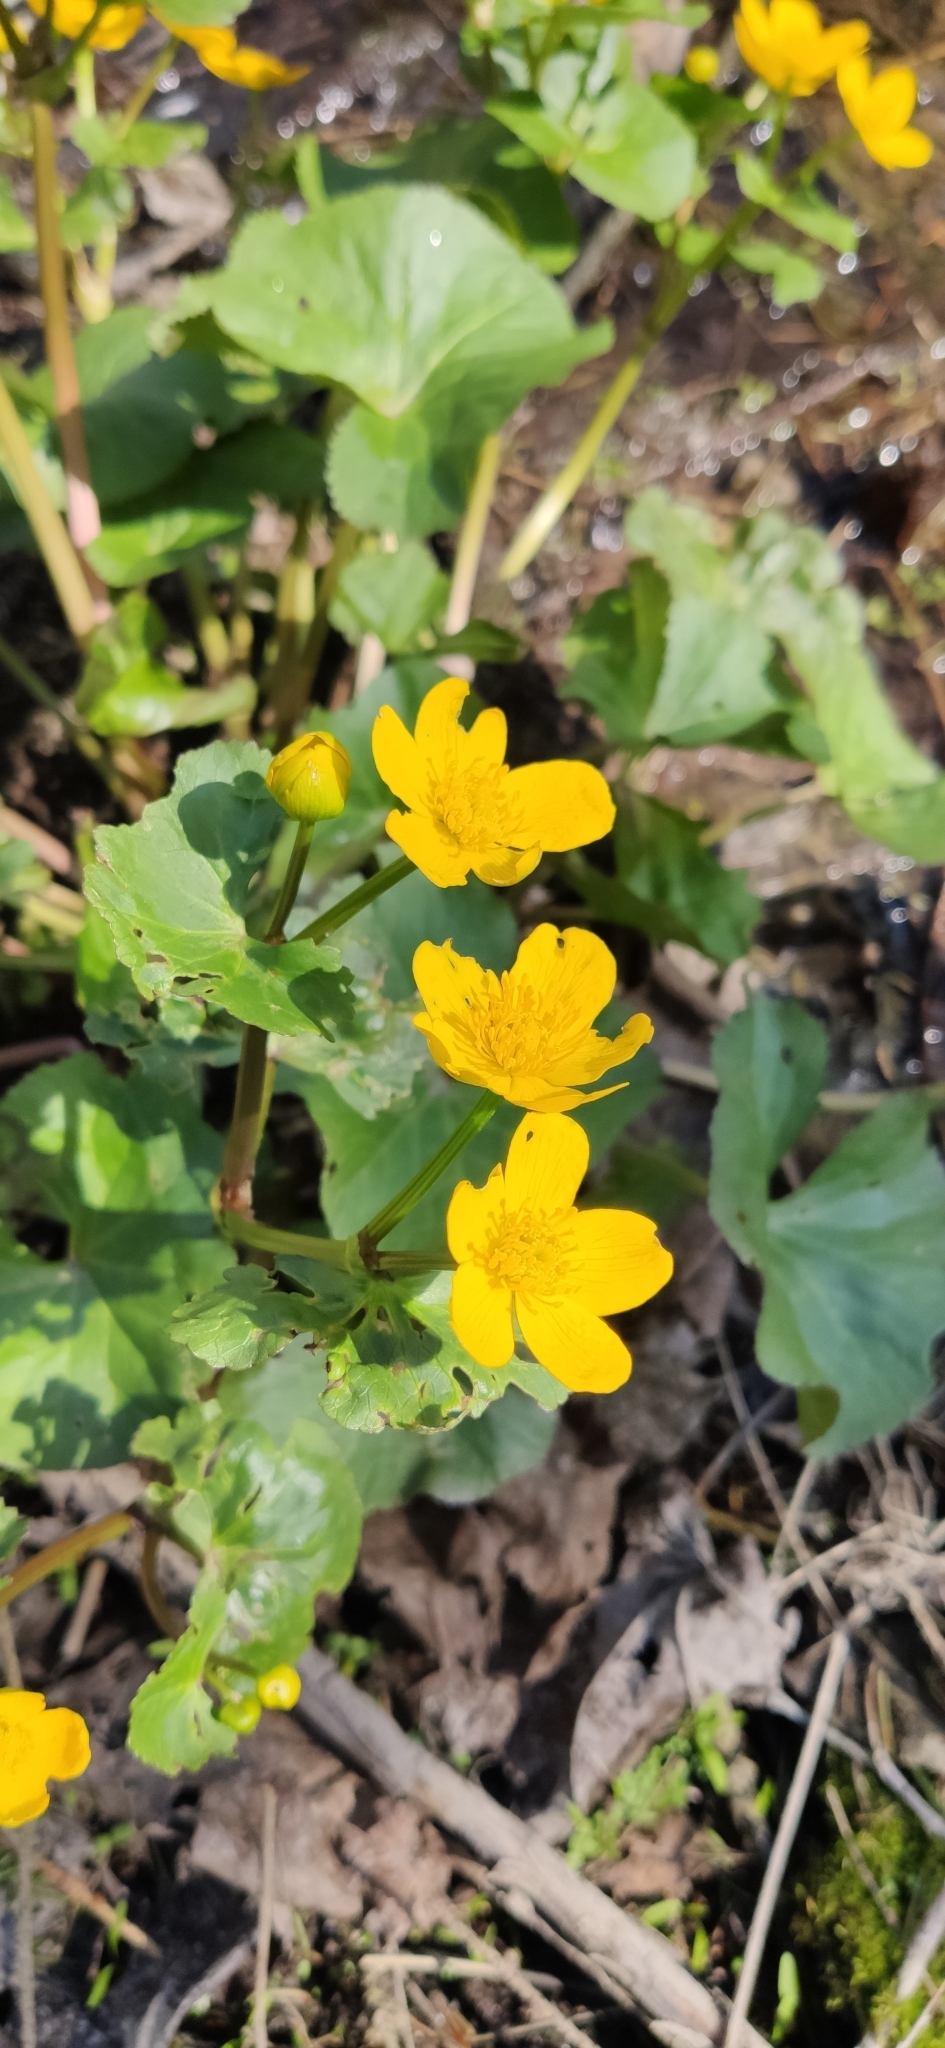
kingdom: Plantae
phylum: Tracheophyta
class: Magnoliopsida
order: Ranunculales
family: Ranunculaceae
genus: Caltha
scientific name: Caltha palustris
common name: Marsh marigold
